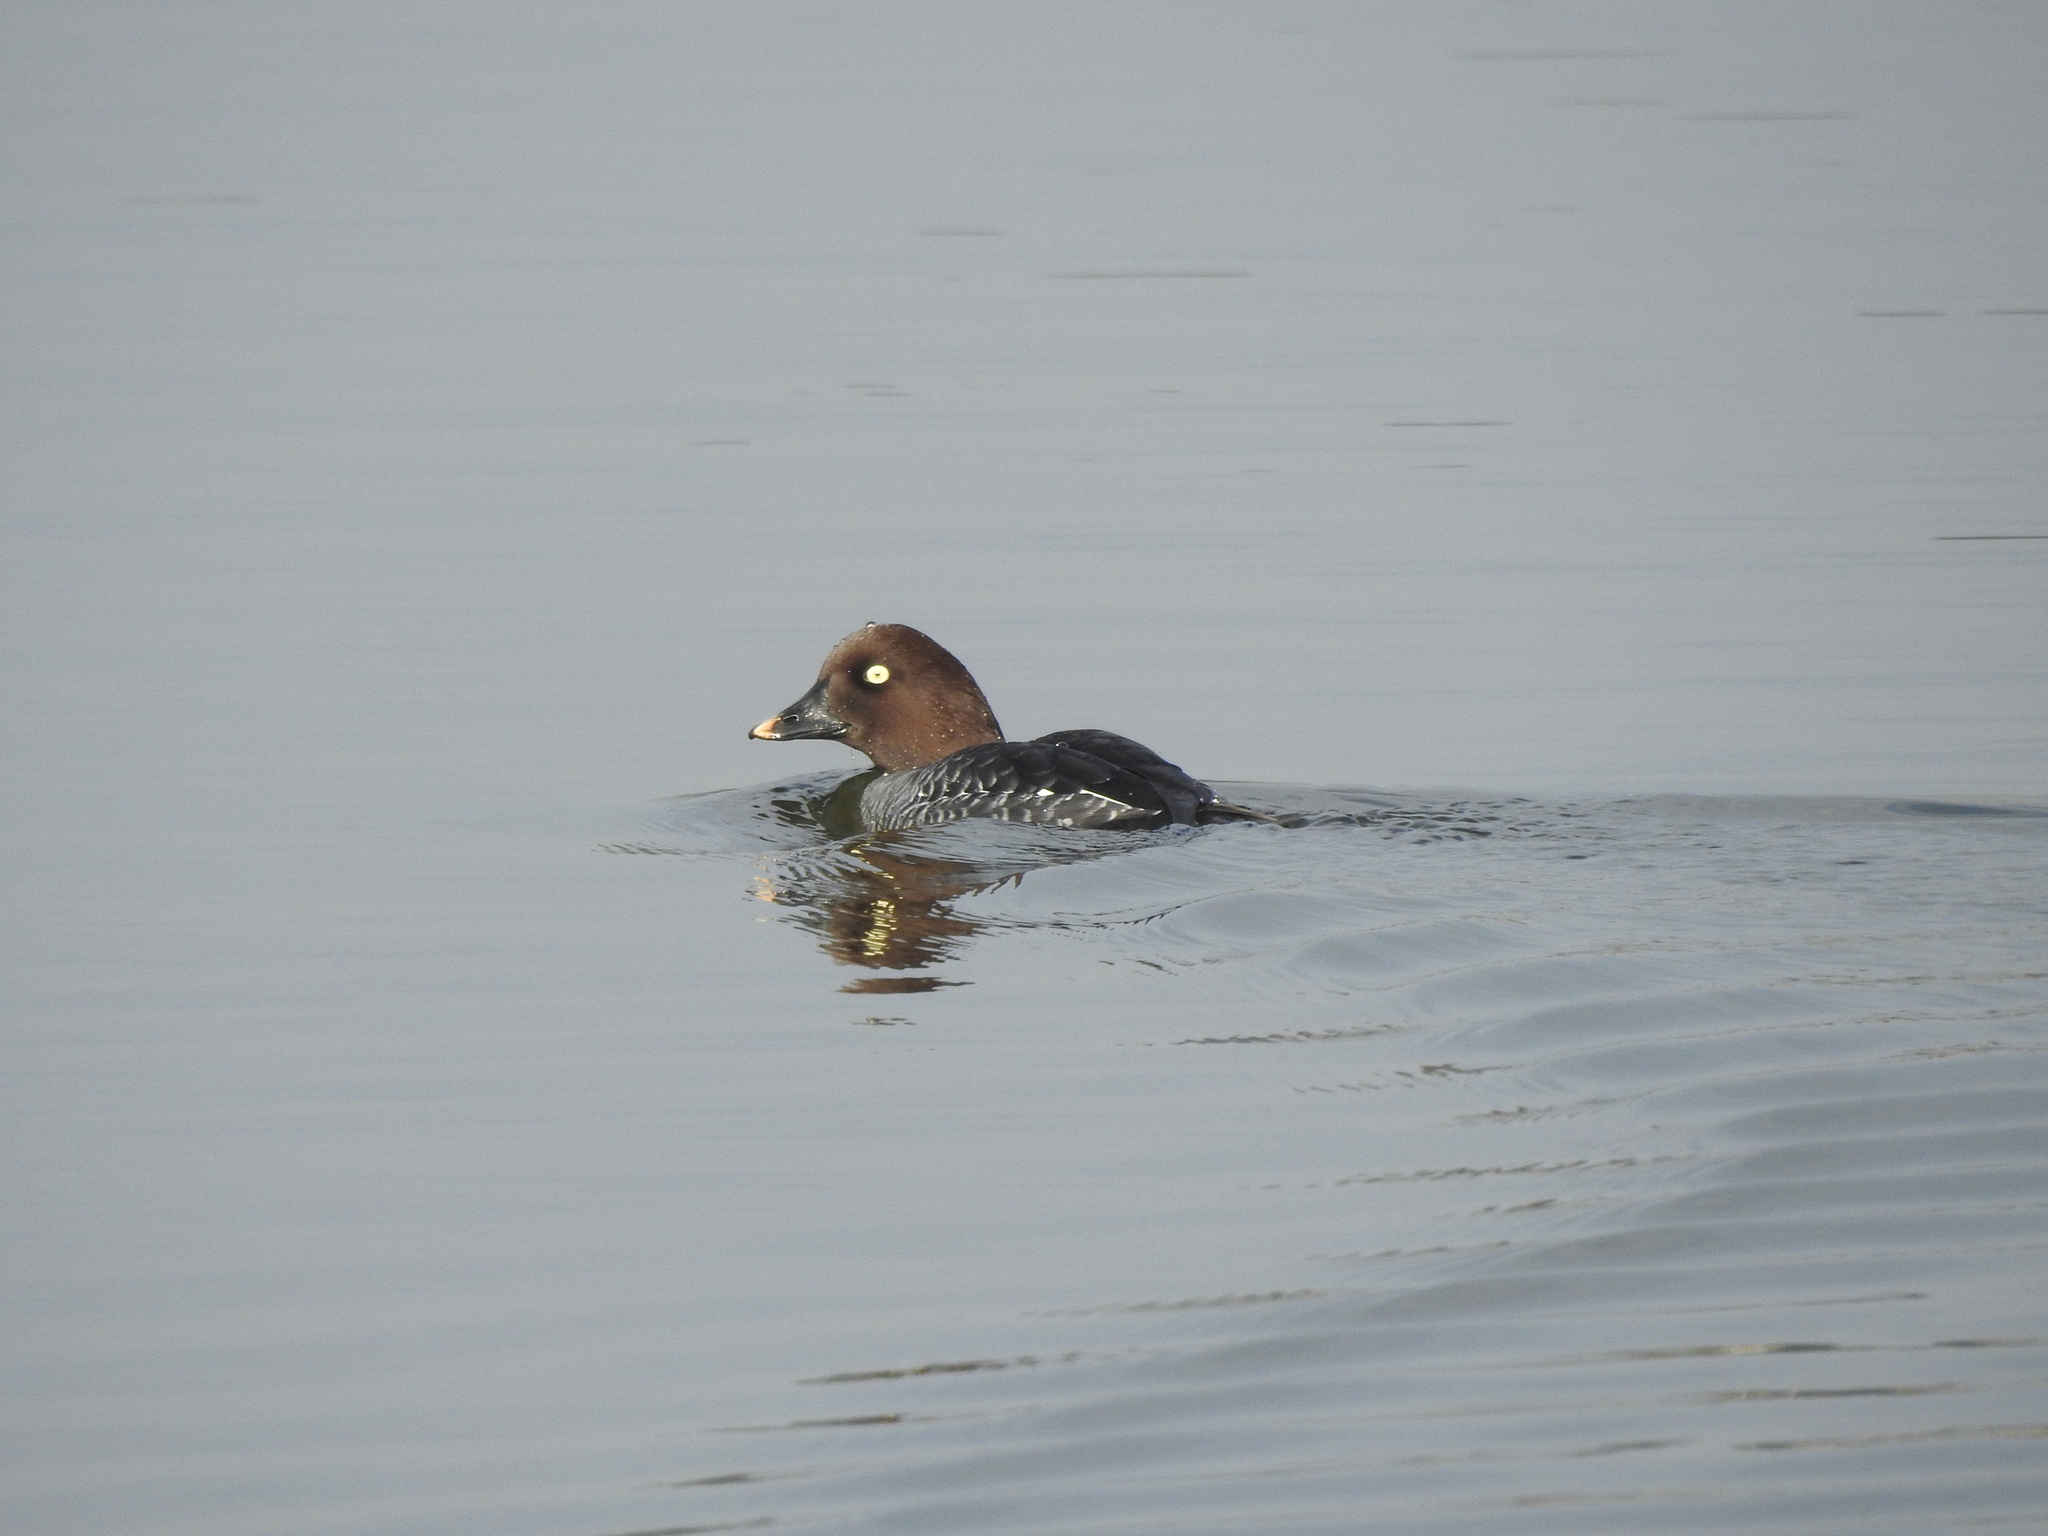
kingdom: Animalia
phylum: Chordata
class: Aves
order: Anseriformes
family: Anatidae
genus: Bucephala
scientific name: Bucephala clangula
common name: Common goldeneye
